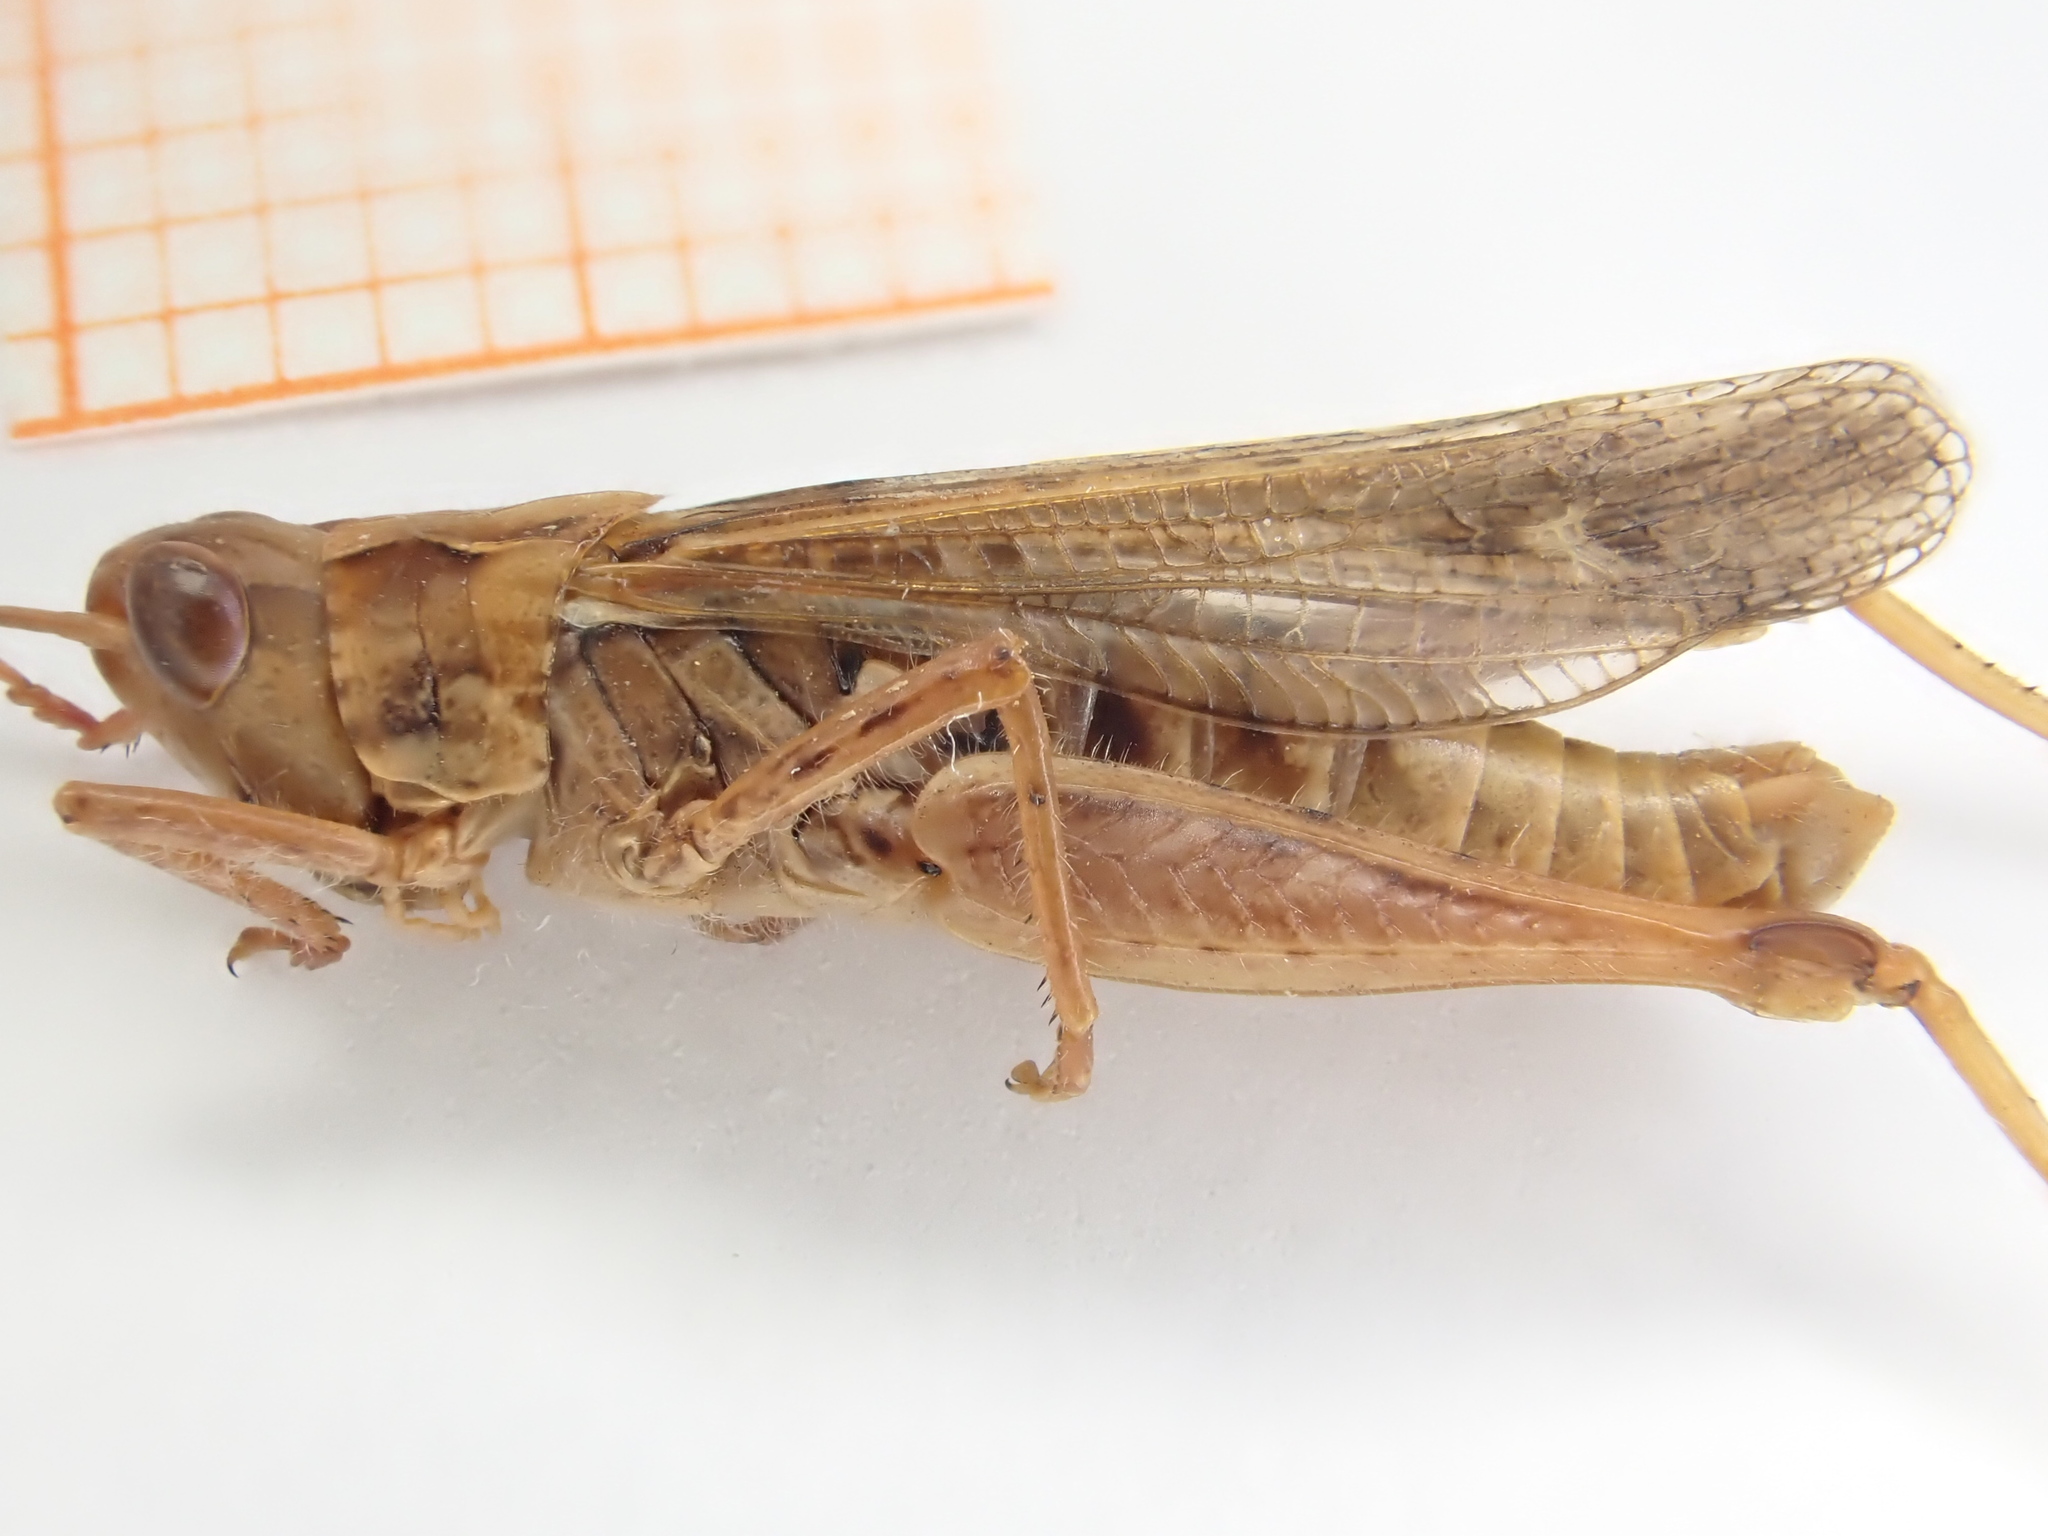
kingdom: Animalia
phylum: Arthropoda
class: Insecta
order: Orthoptera
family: Acrididae
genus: Chorthippus
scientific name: Chorthippus biguttulus
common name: Bow-winged grasshopper
